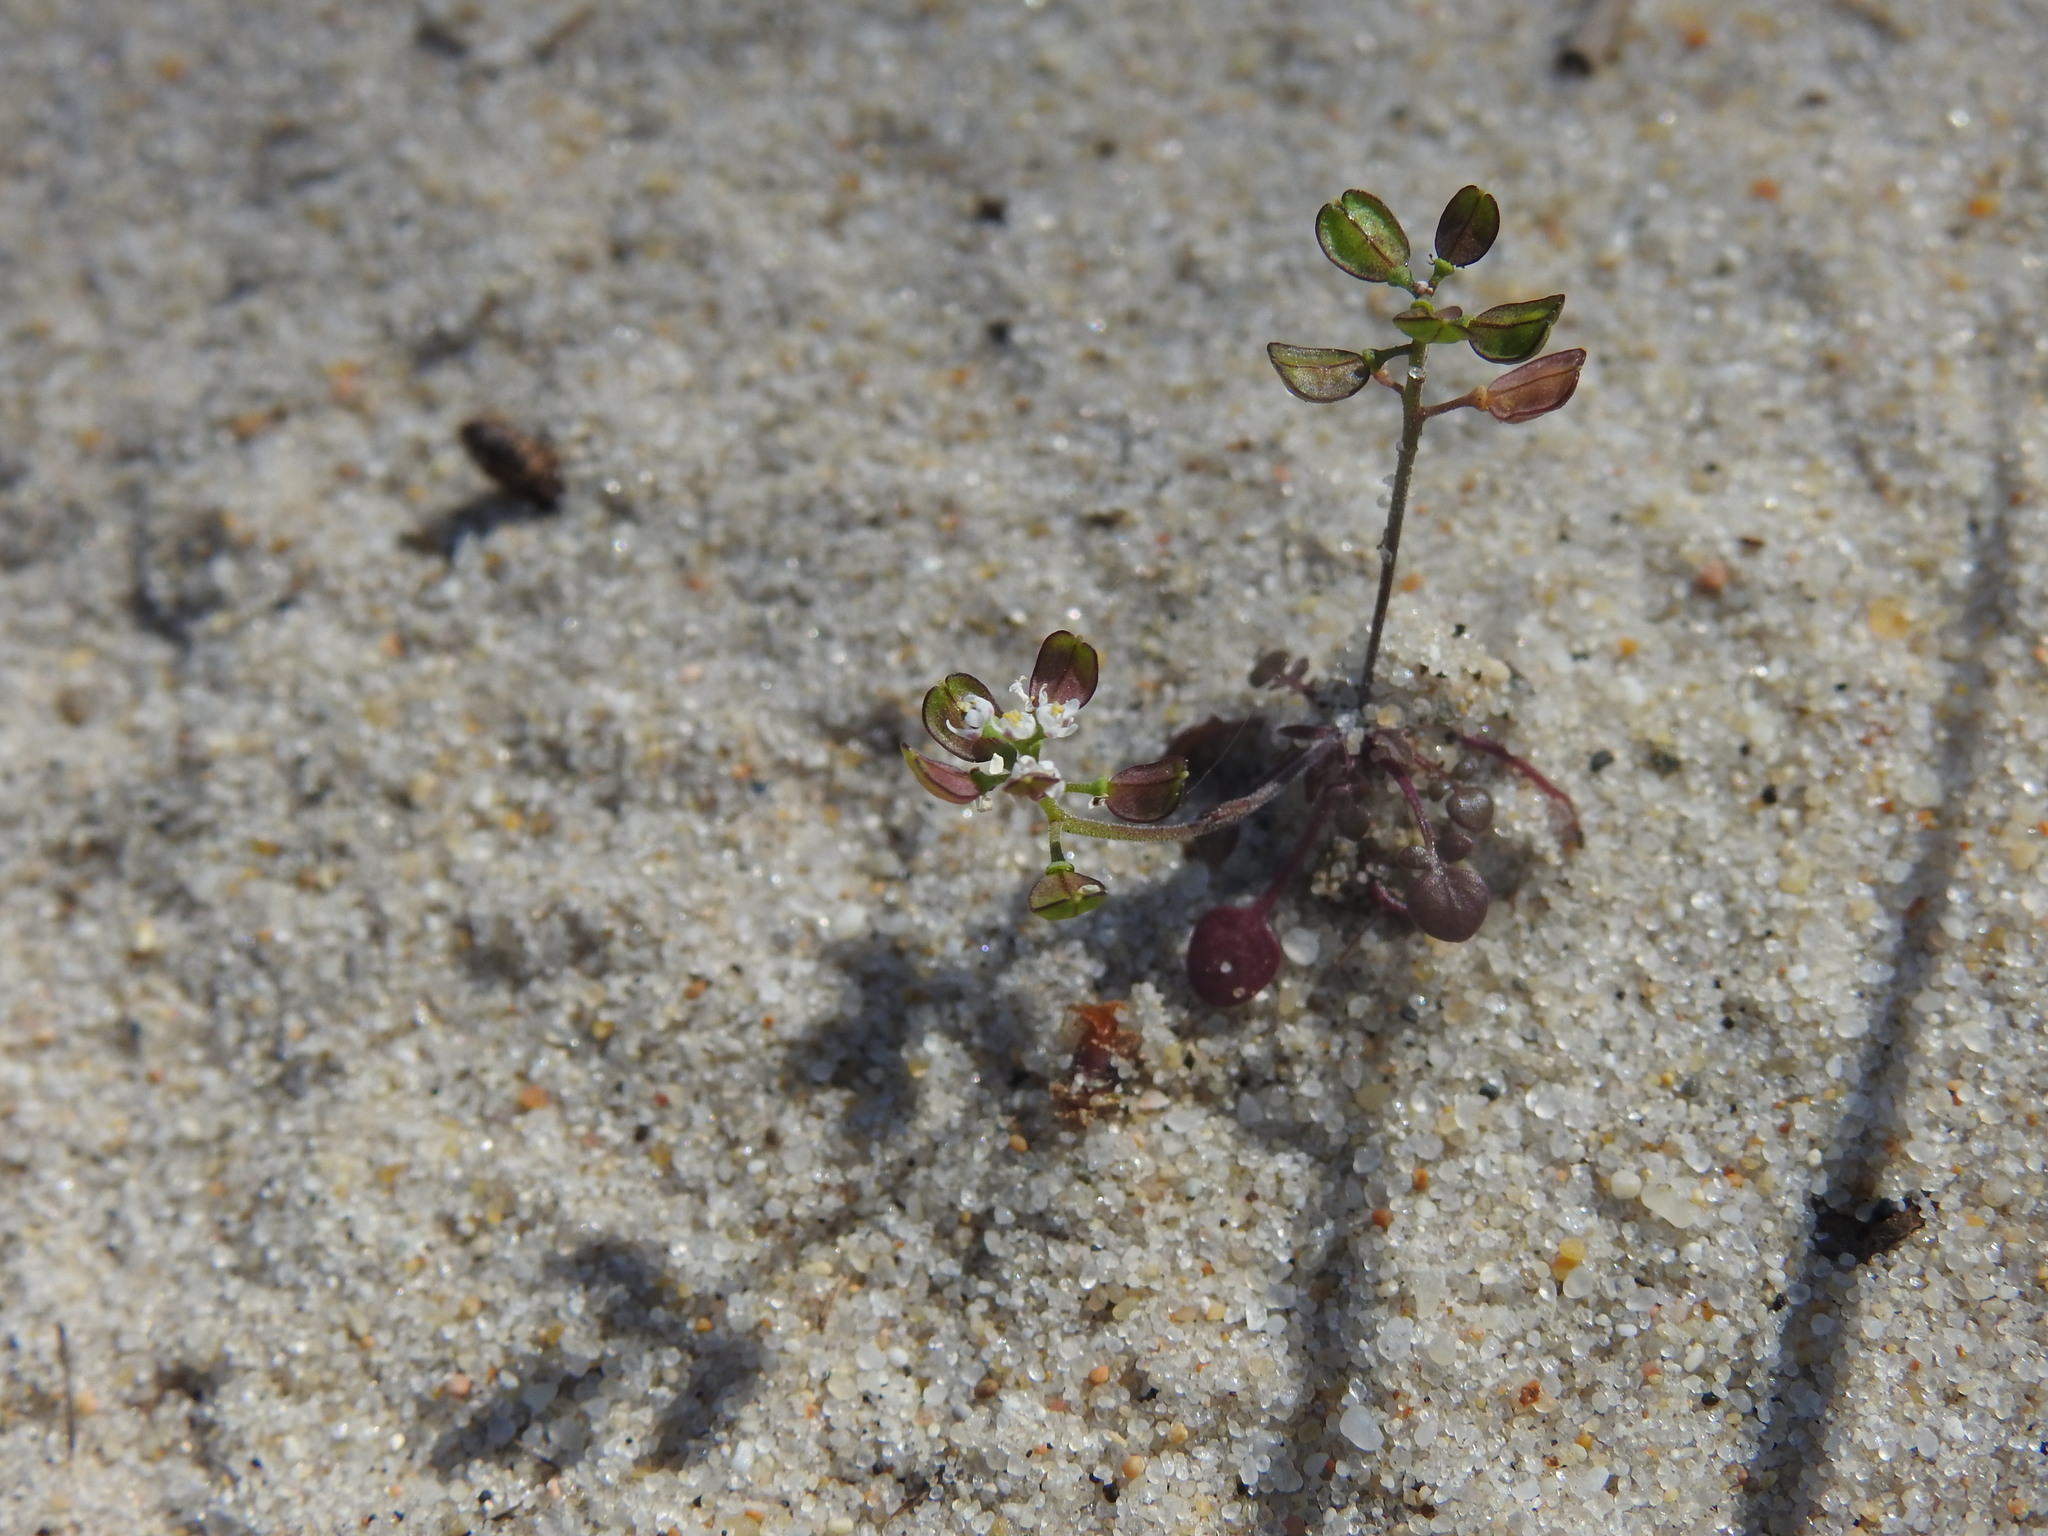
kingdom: Plantae
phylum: Tracheophyta
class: Magnoliopsida
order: Brassicales
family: Brassicaceae
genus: Teesdalia
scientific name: Teesdalia nudicaulis
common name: Shepherd's cress
